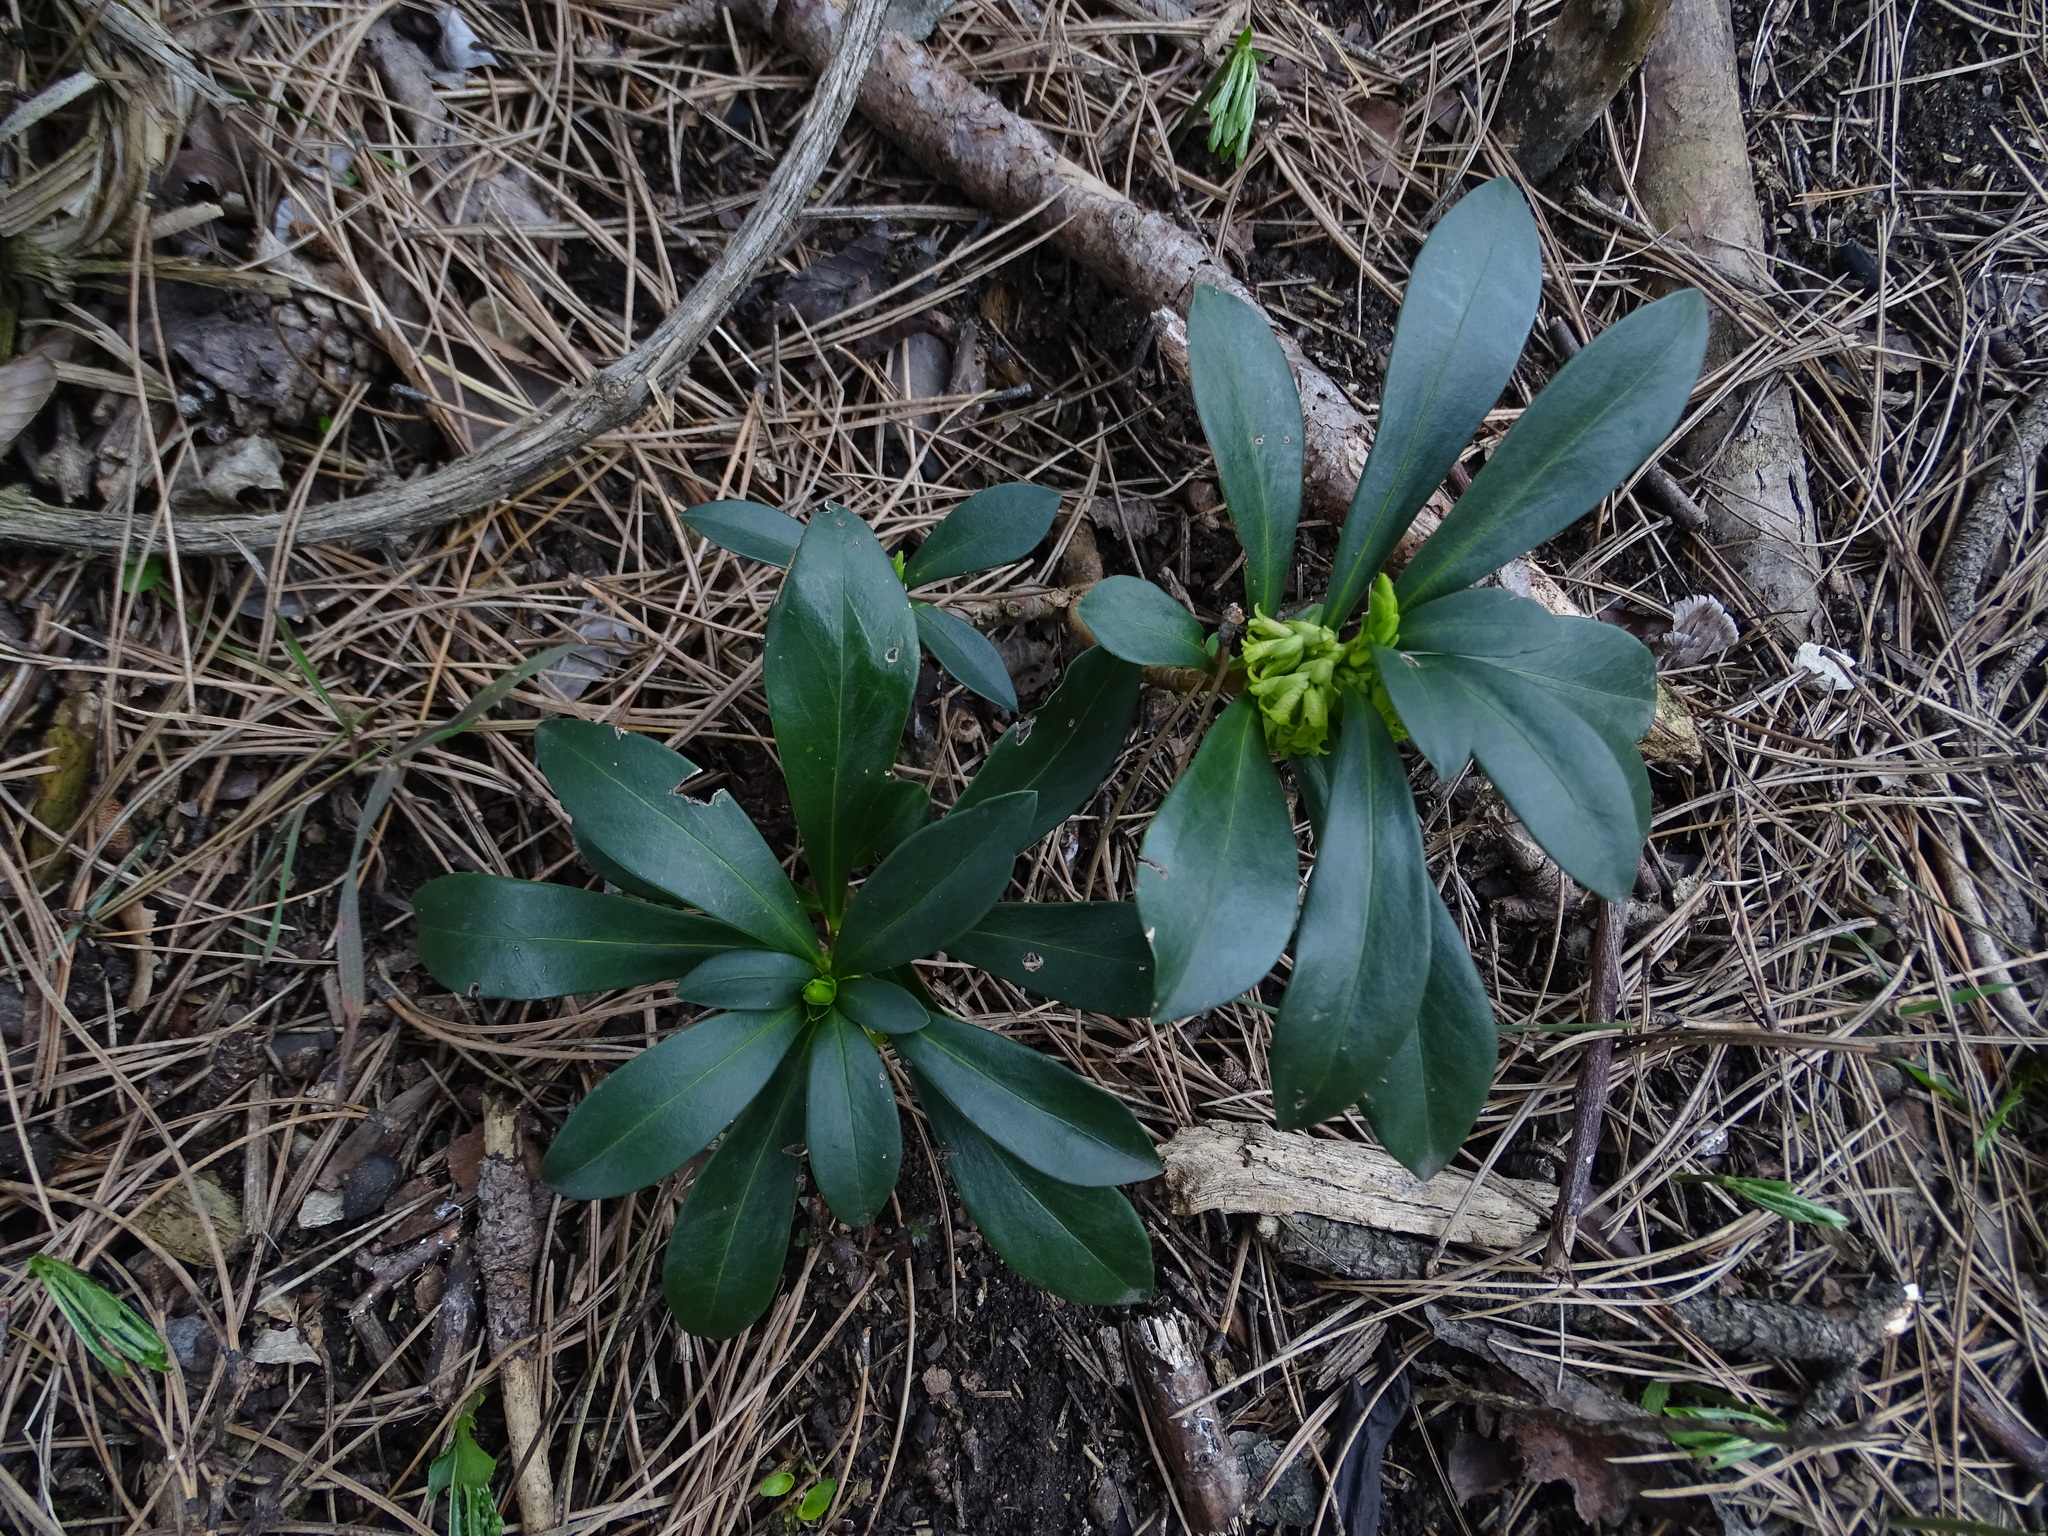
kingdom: Plantae
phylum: Tracheophyta
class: Magnoliopsida
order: Malvales
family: Thymelaeaceae
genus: Daphne
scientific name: Daphne laureola
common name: Spurge-laurel
